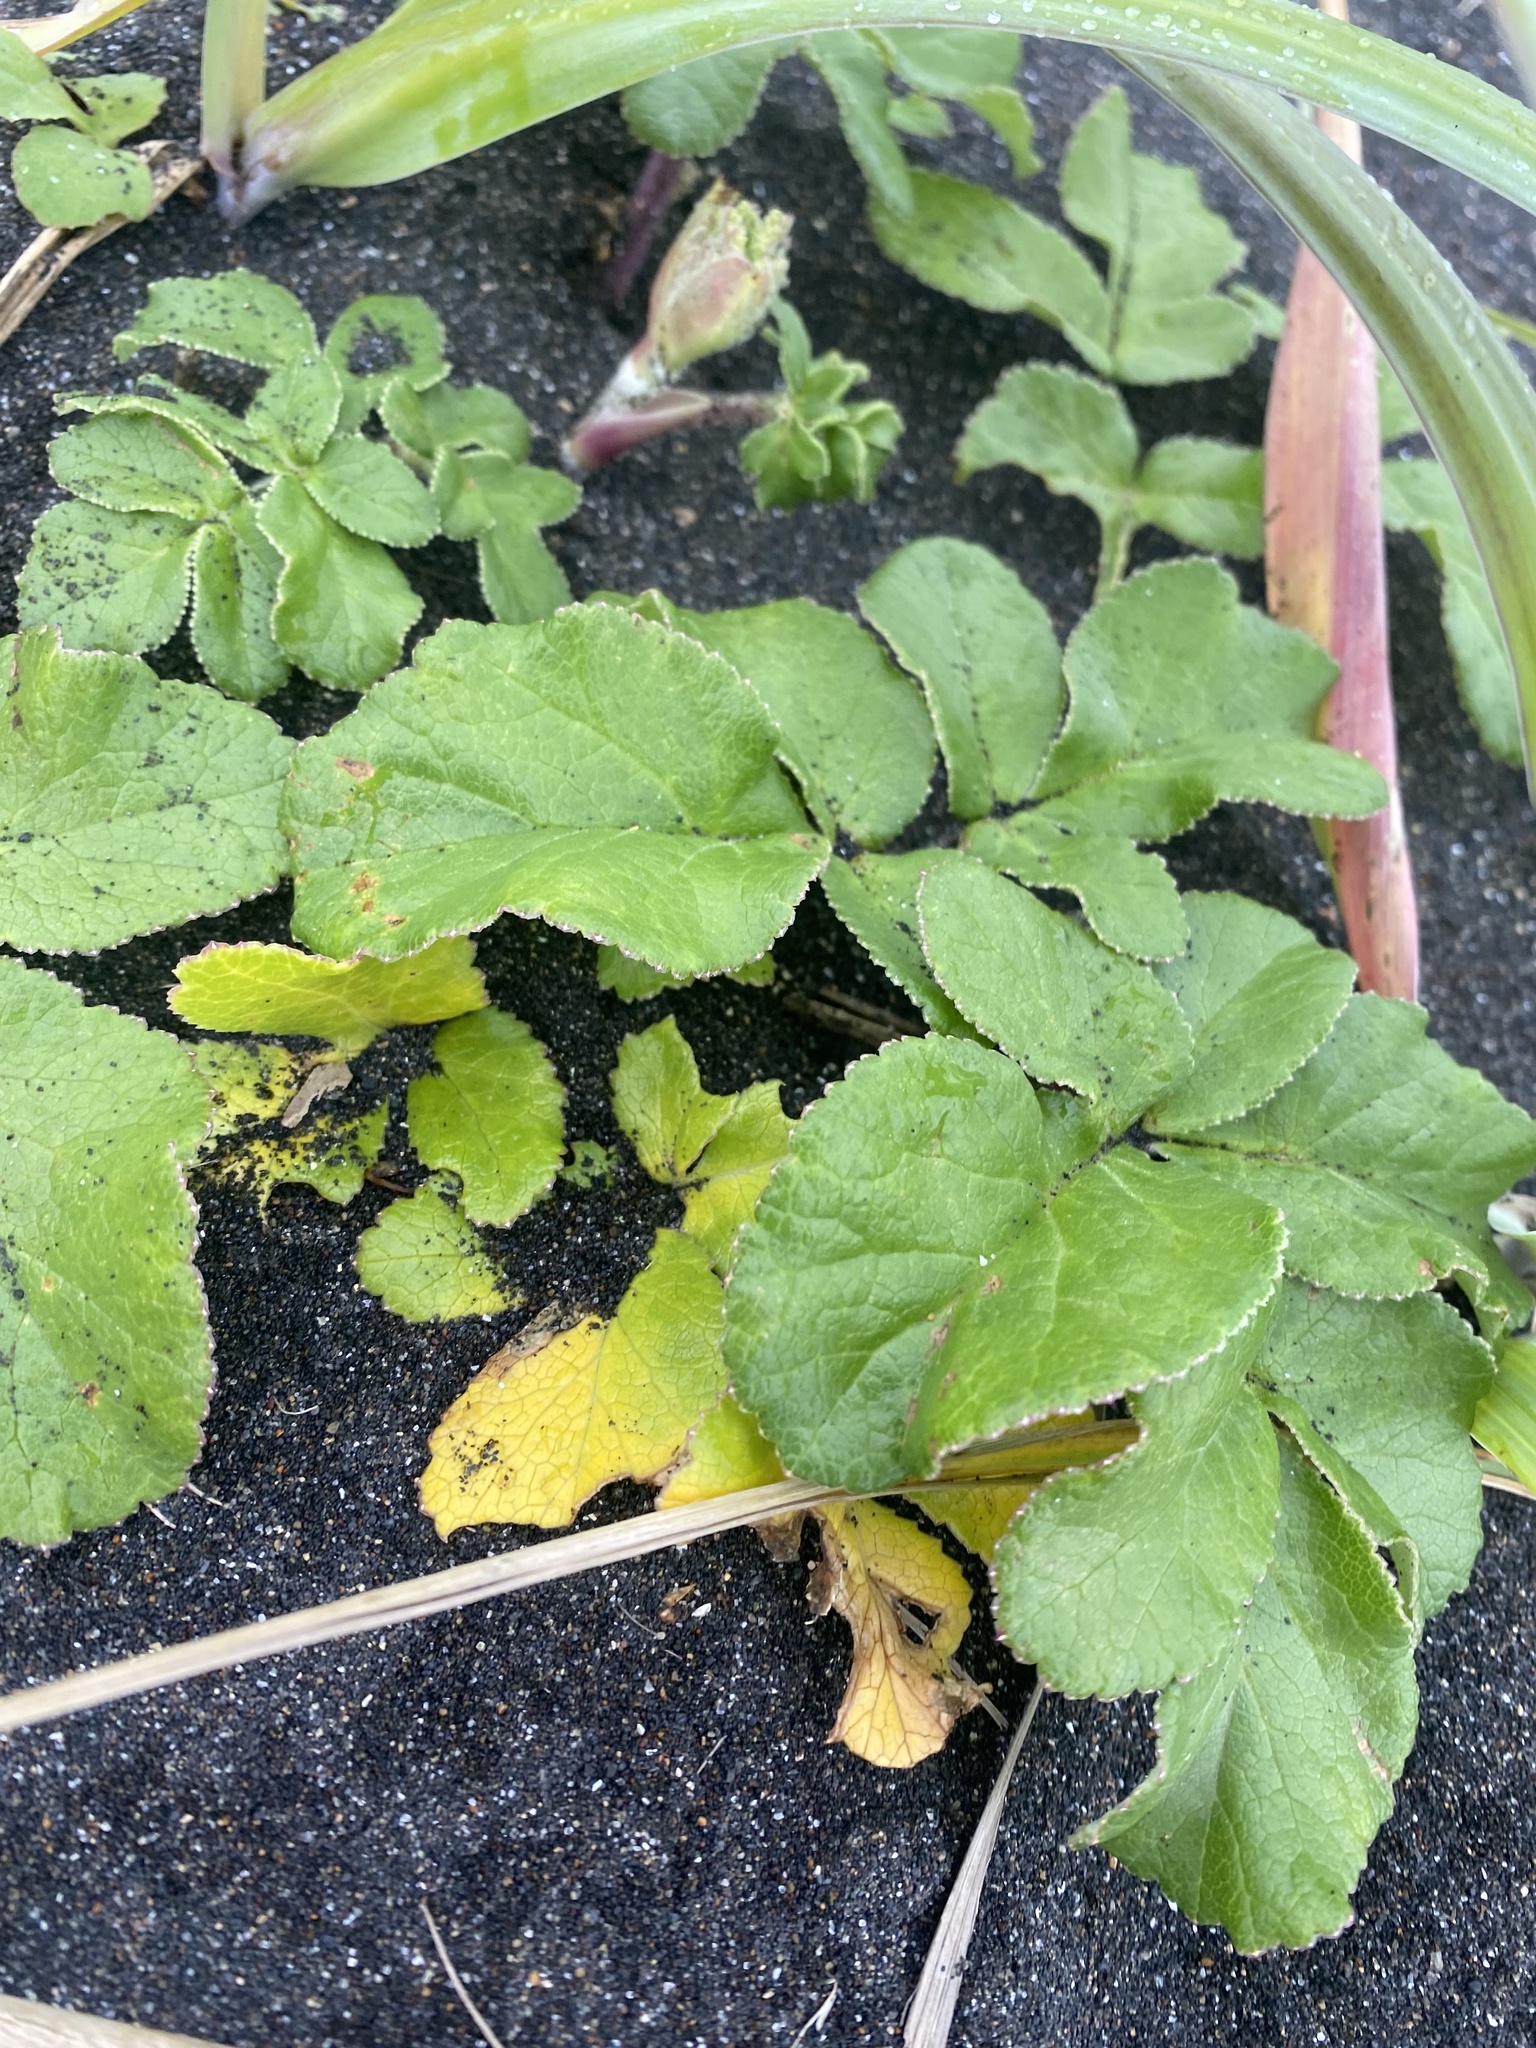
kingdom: Plantae
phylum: Tracheophyta
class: Magnoliopsida
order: Apiales
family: Apiaceae
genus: Glehnia
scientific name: Glehnia littoralis
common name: Beach silvertop
